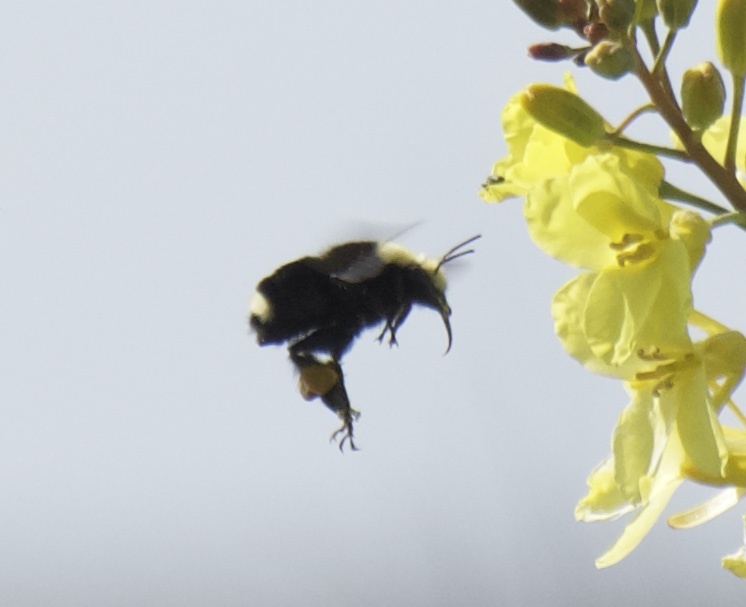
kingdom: Animalia
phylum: Arthropoda
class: Insecta
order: Hymenoptera
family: Apidae
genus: Bombus
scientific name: Bombus vosnesenskii
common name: Vosnesensky bumble bee
